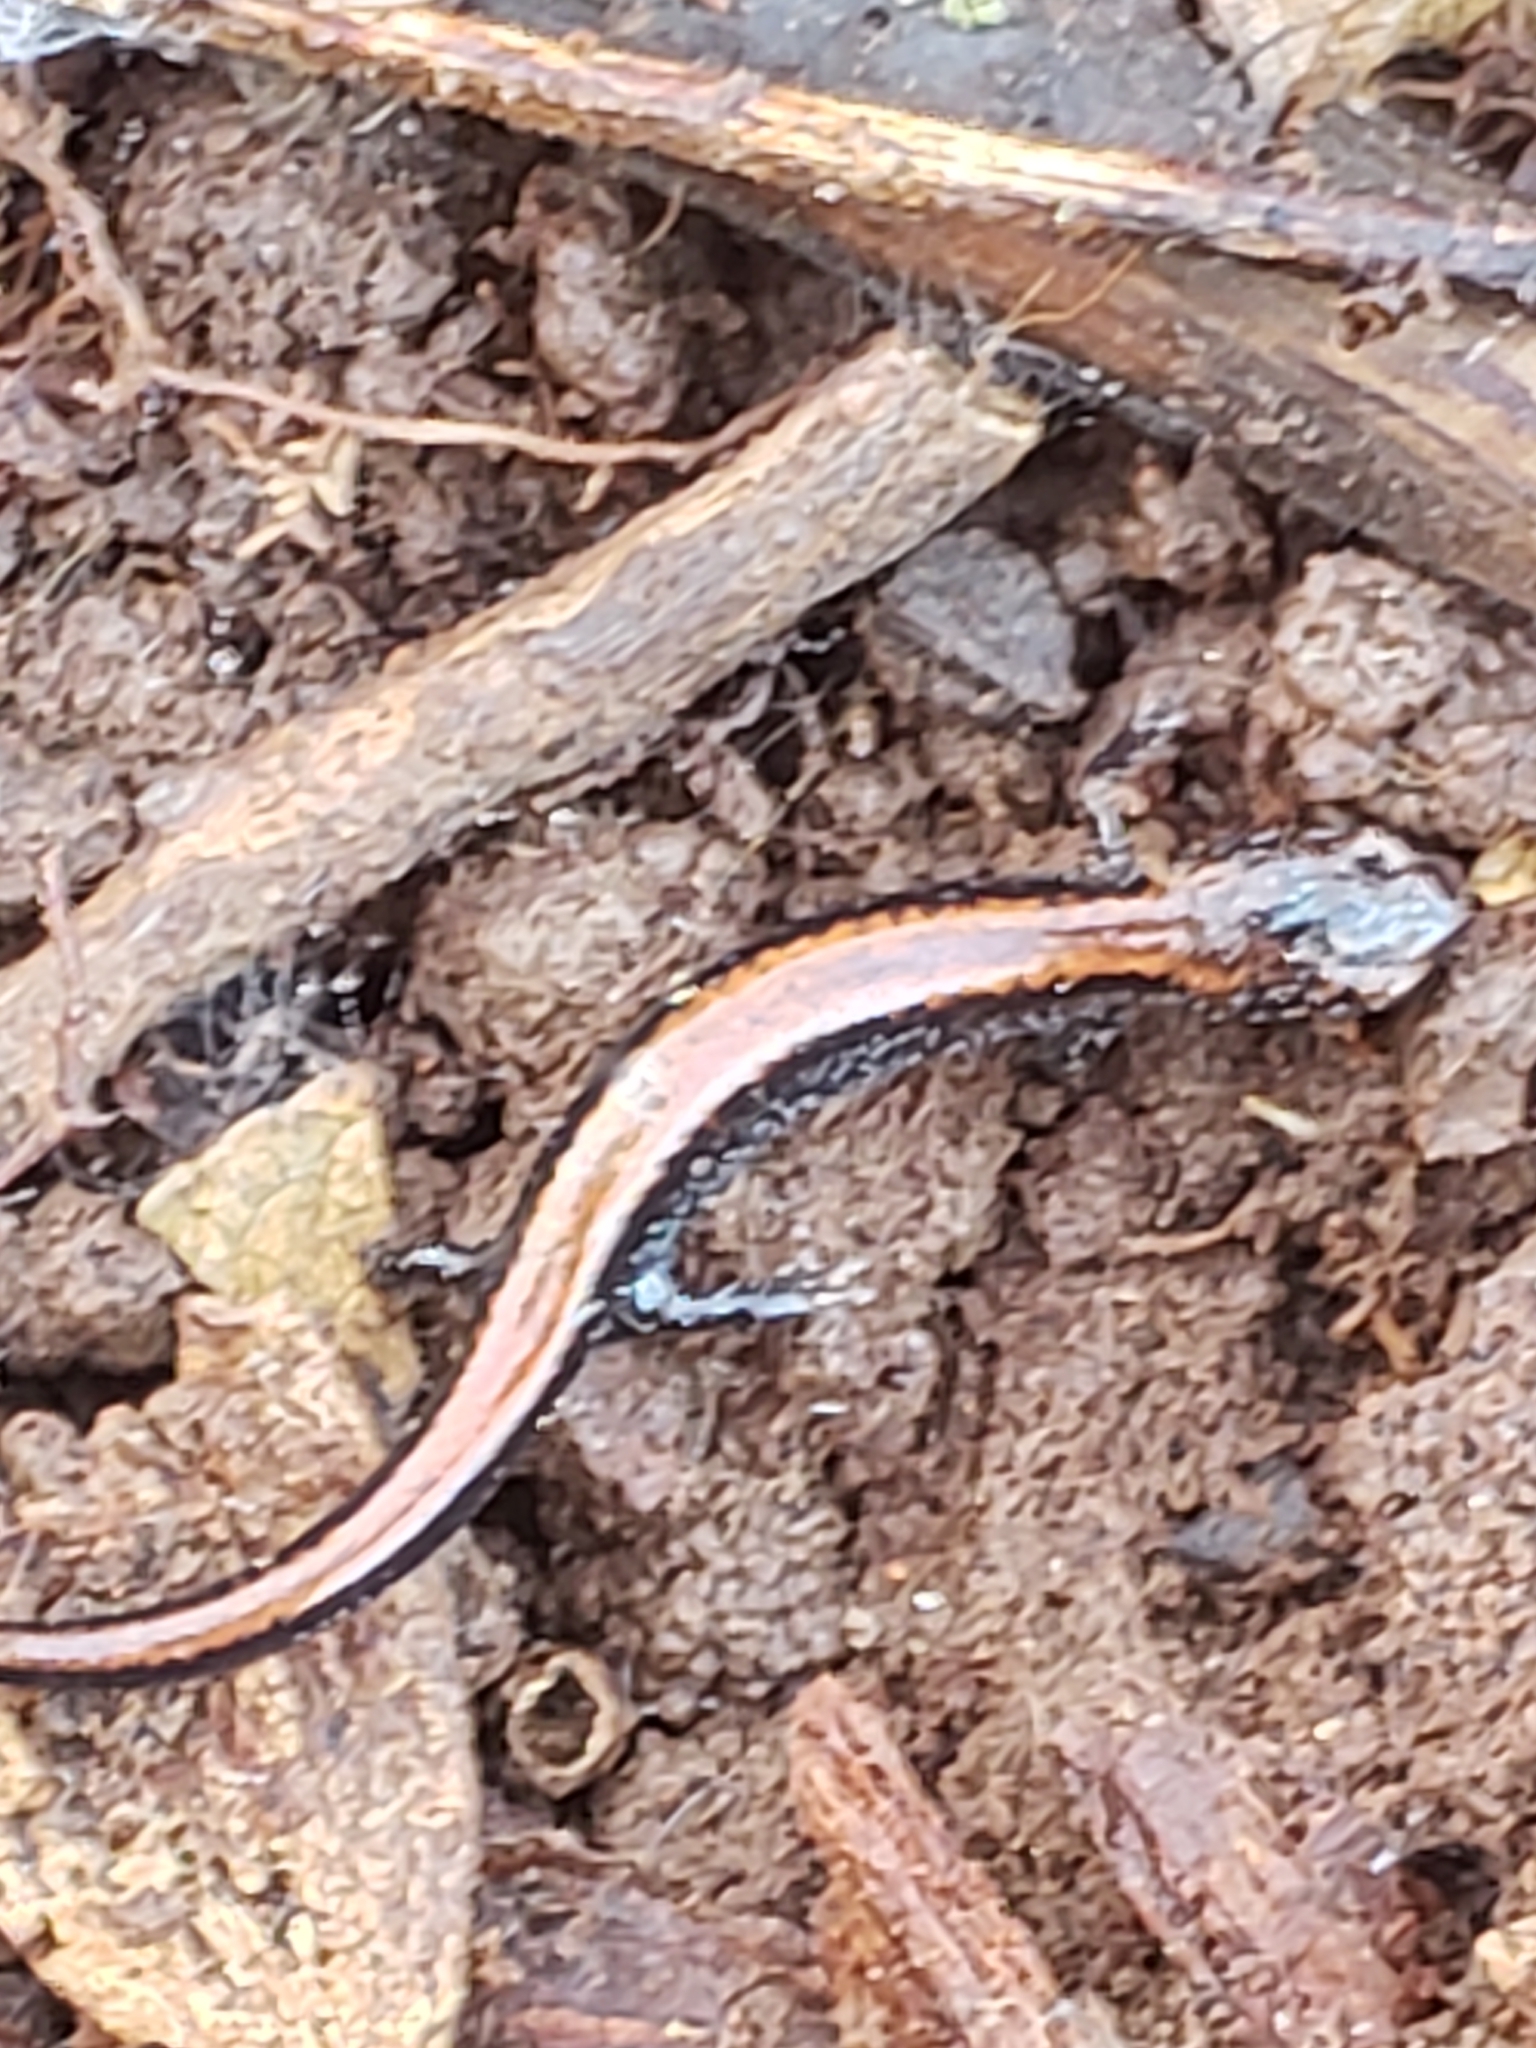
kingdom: Animalia
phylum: Chordata
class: Amphibia
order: Caudata
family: Plethodontidae
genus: Plethodon
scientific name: Plethodon cinereus
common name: Redback salamander
